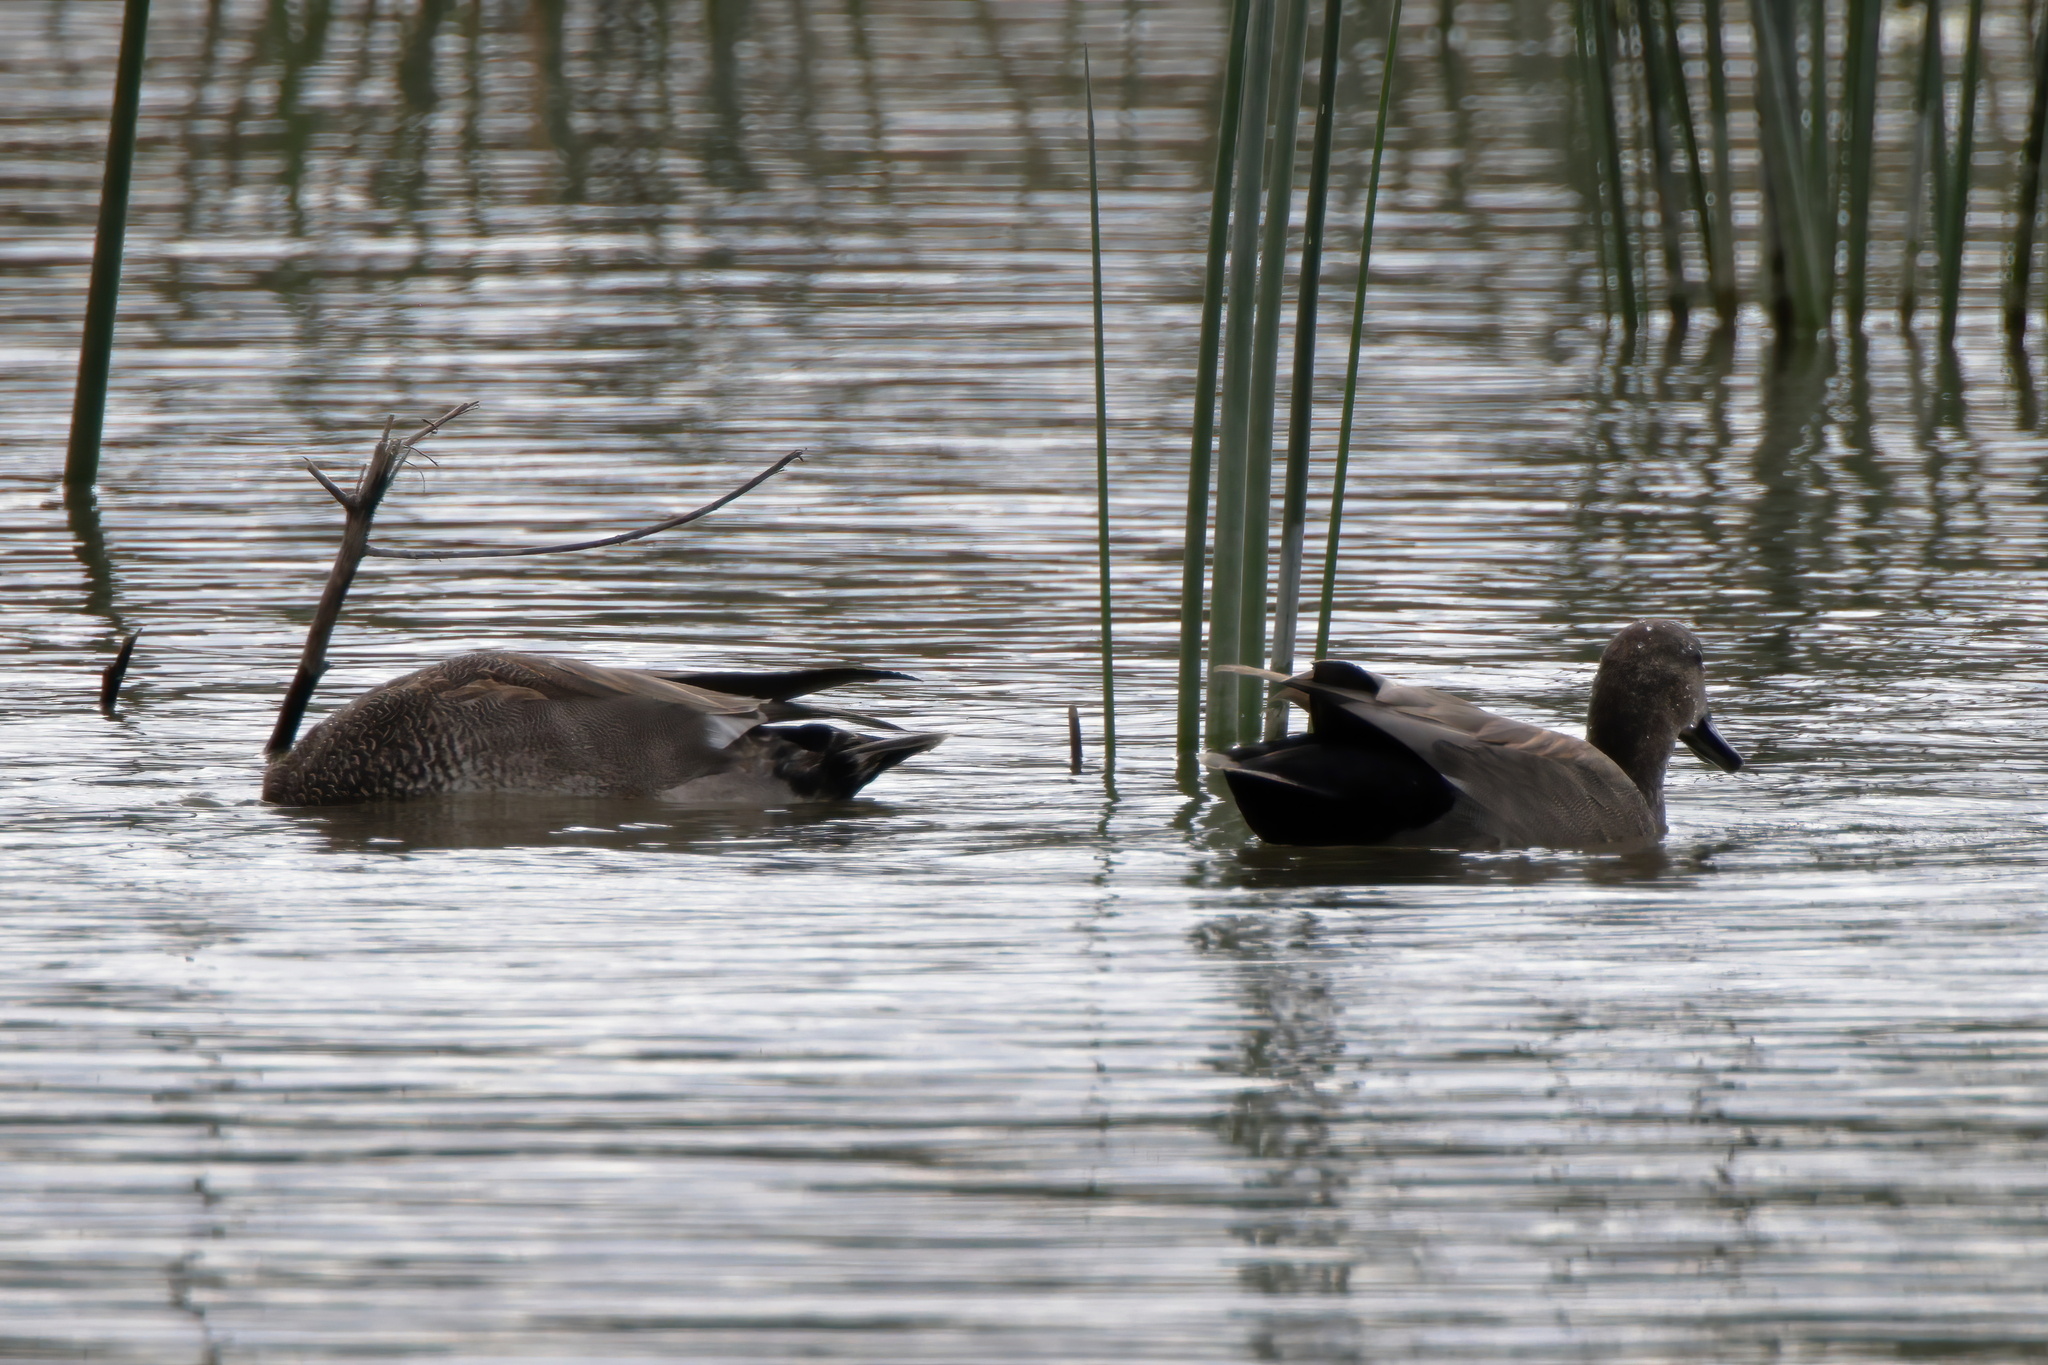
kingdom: Animalia
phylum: Chordata
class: Aves
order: Anseriformes
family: Anatidae
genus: Mareca
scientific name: Mareca strepera
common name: Gadwall
